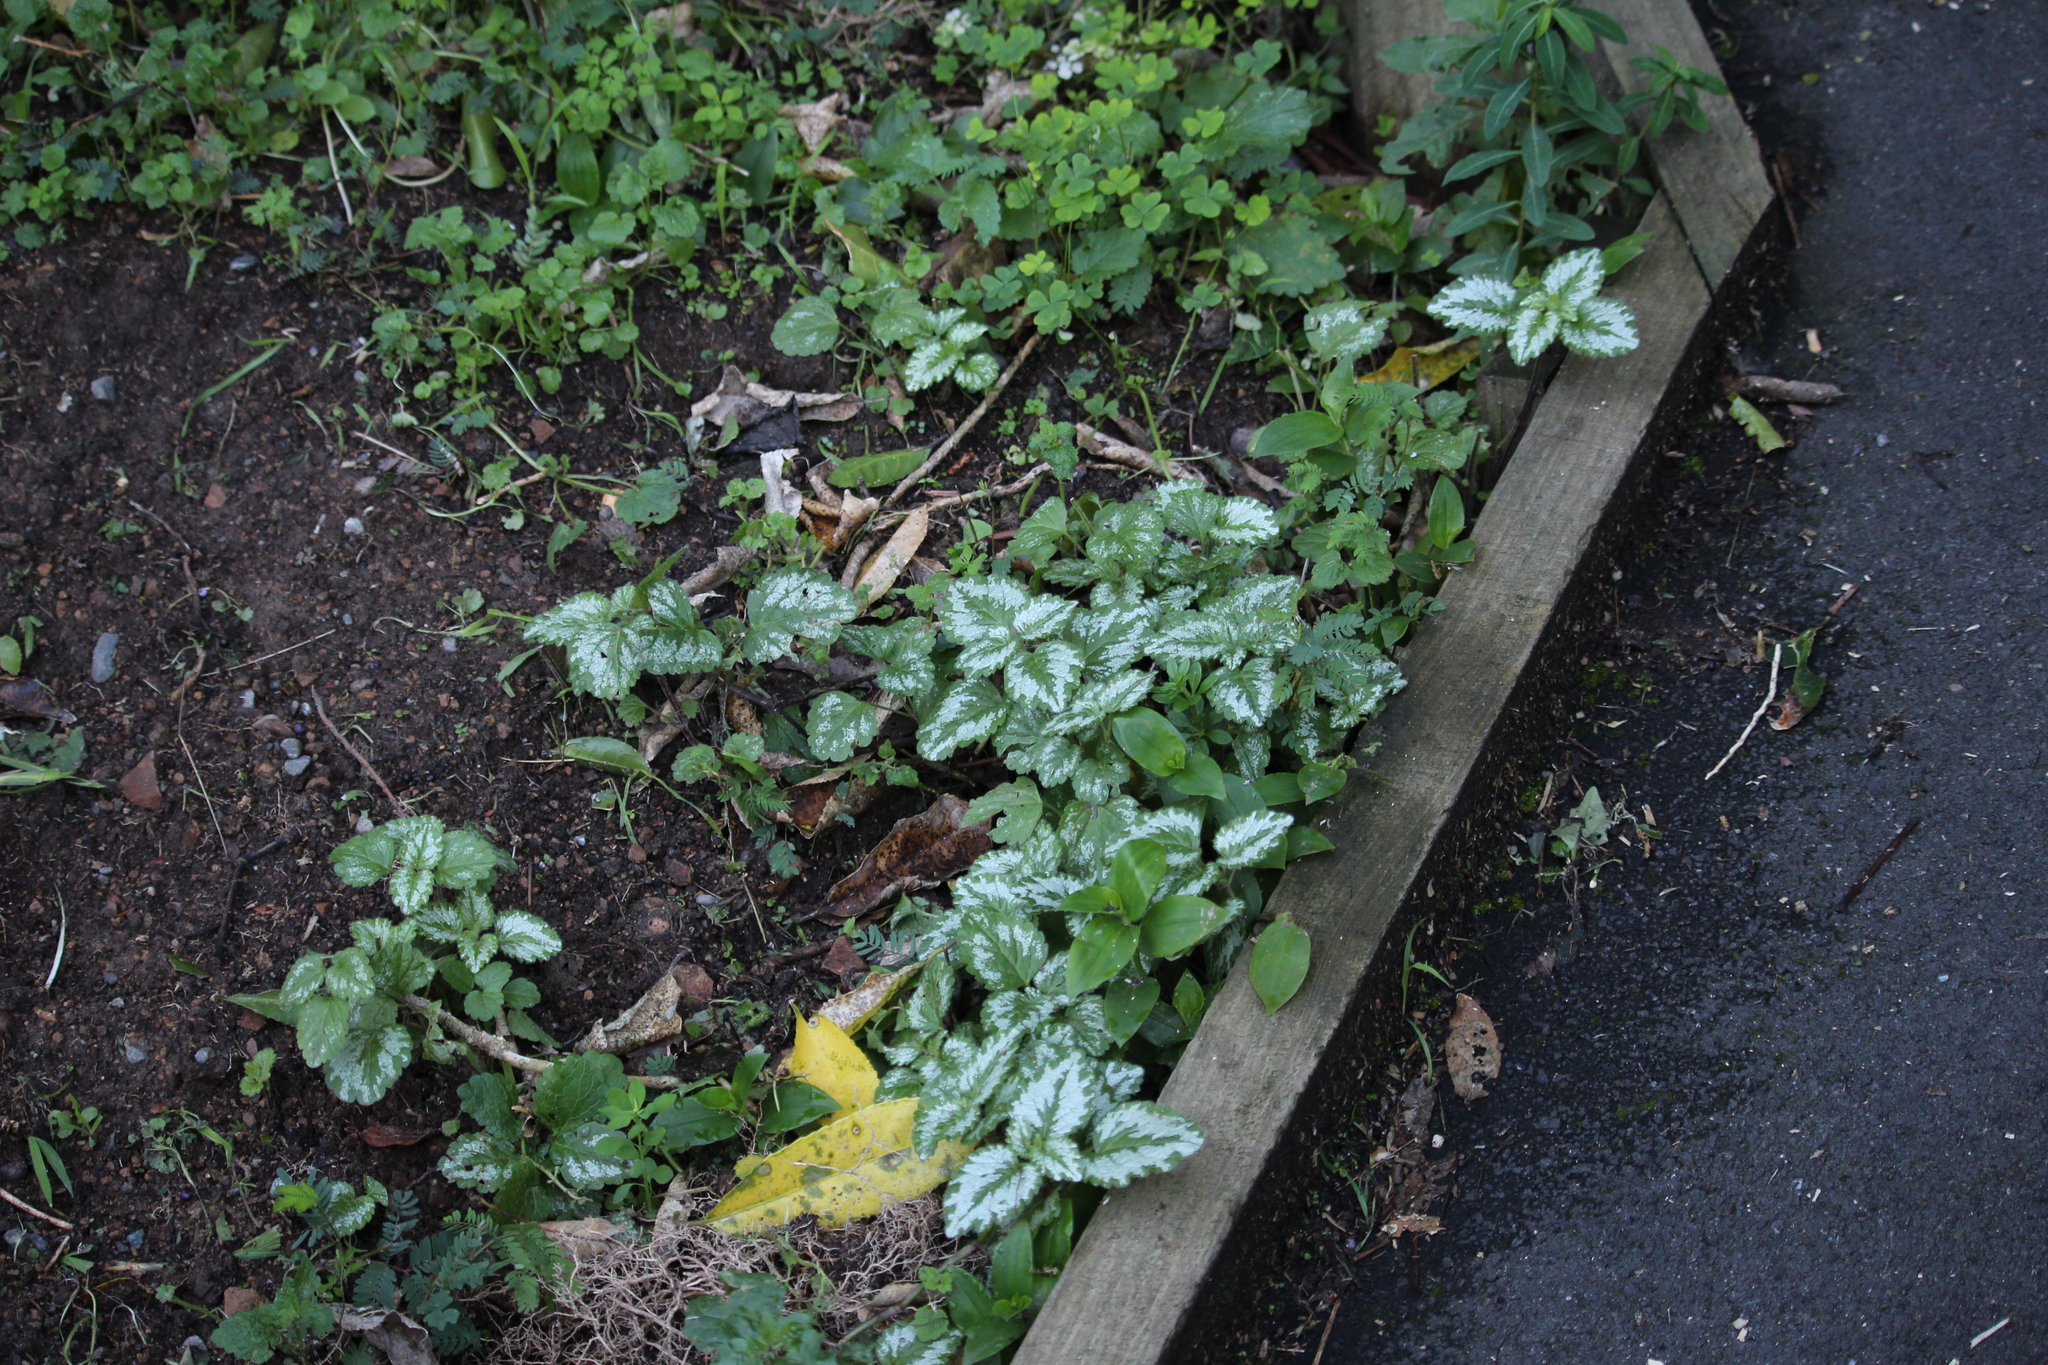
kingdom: Plantae
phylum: Tracheophyta
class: Magnoliopsida
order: Lamiales
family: Lamiaceae
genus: Lamium
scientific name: Lamium galeobdolon
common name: Yellow archangel
